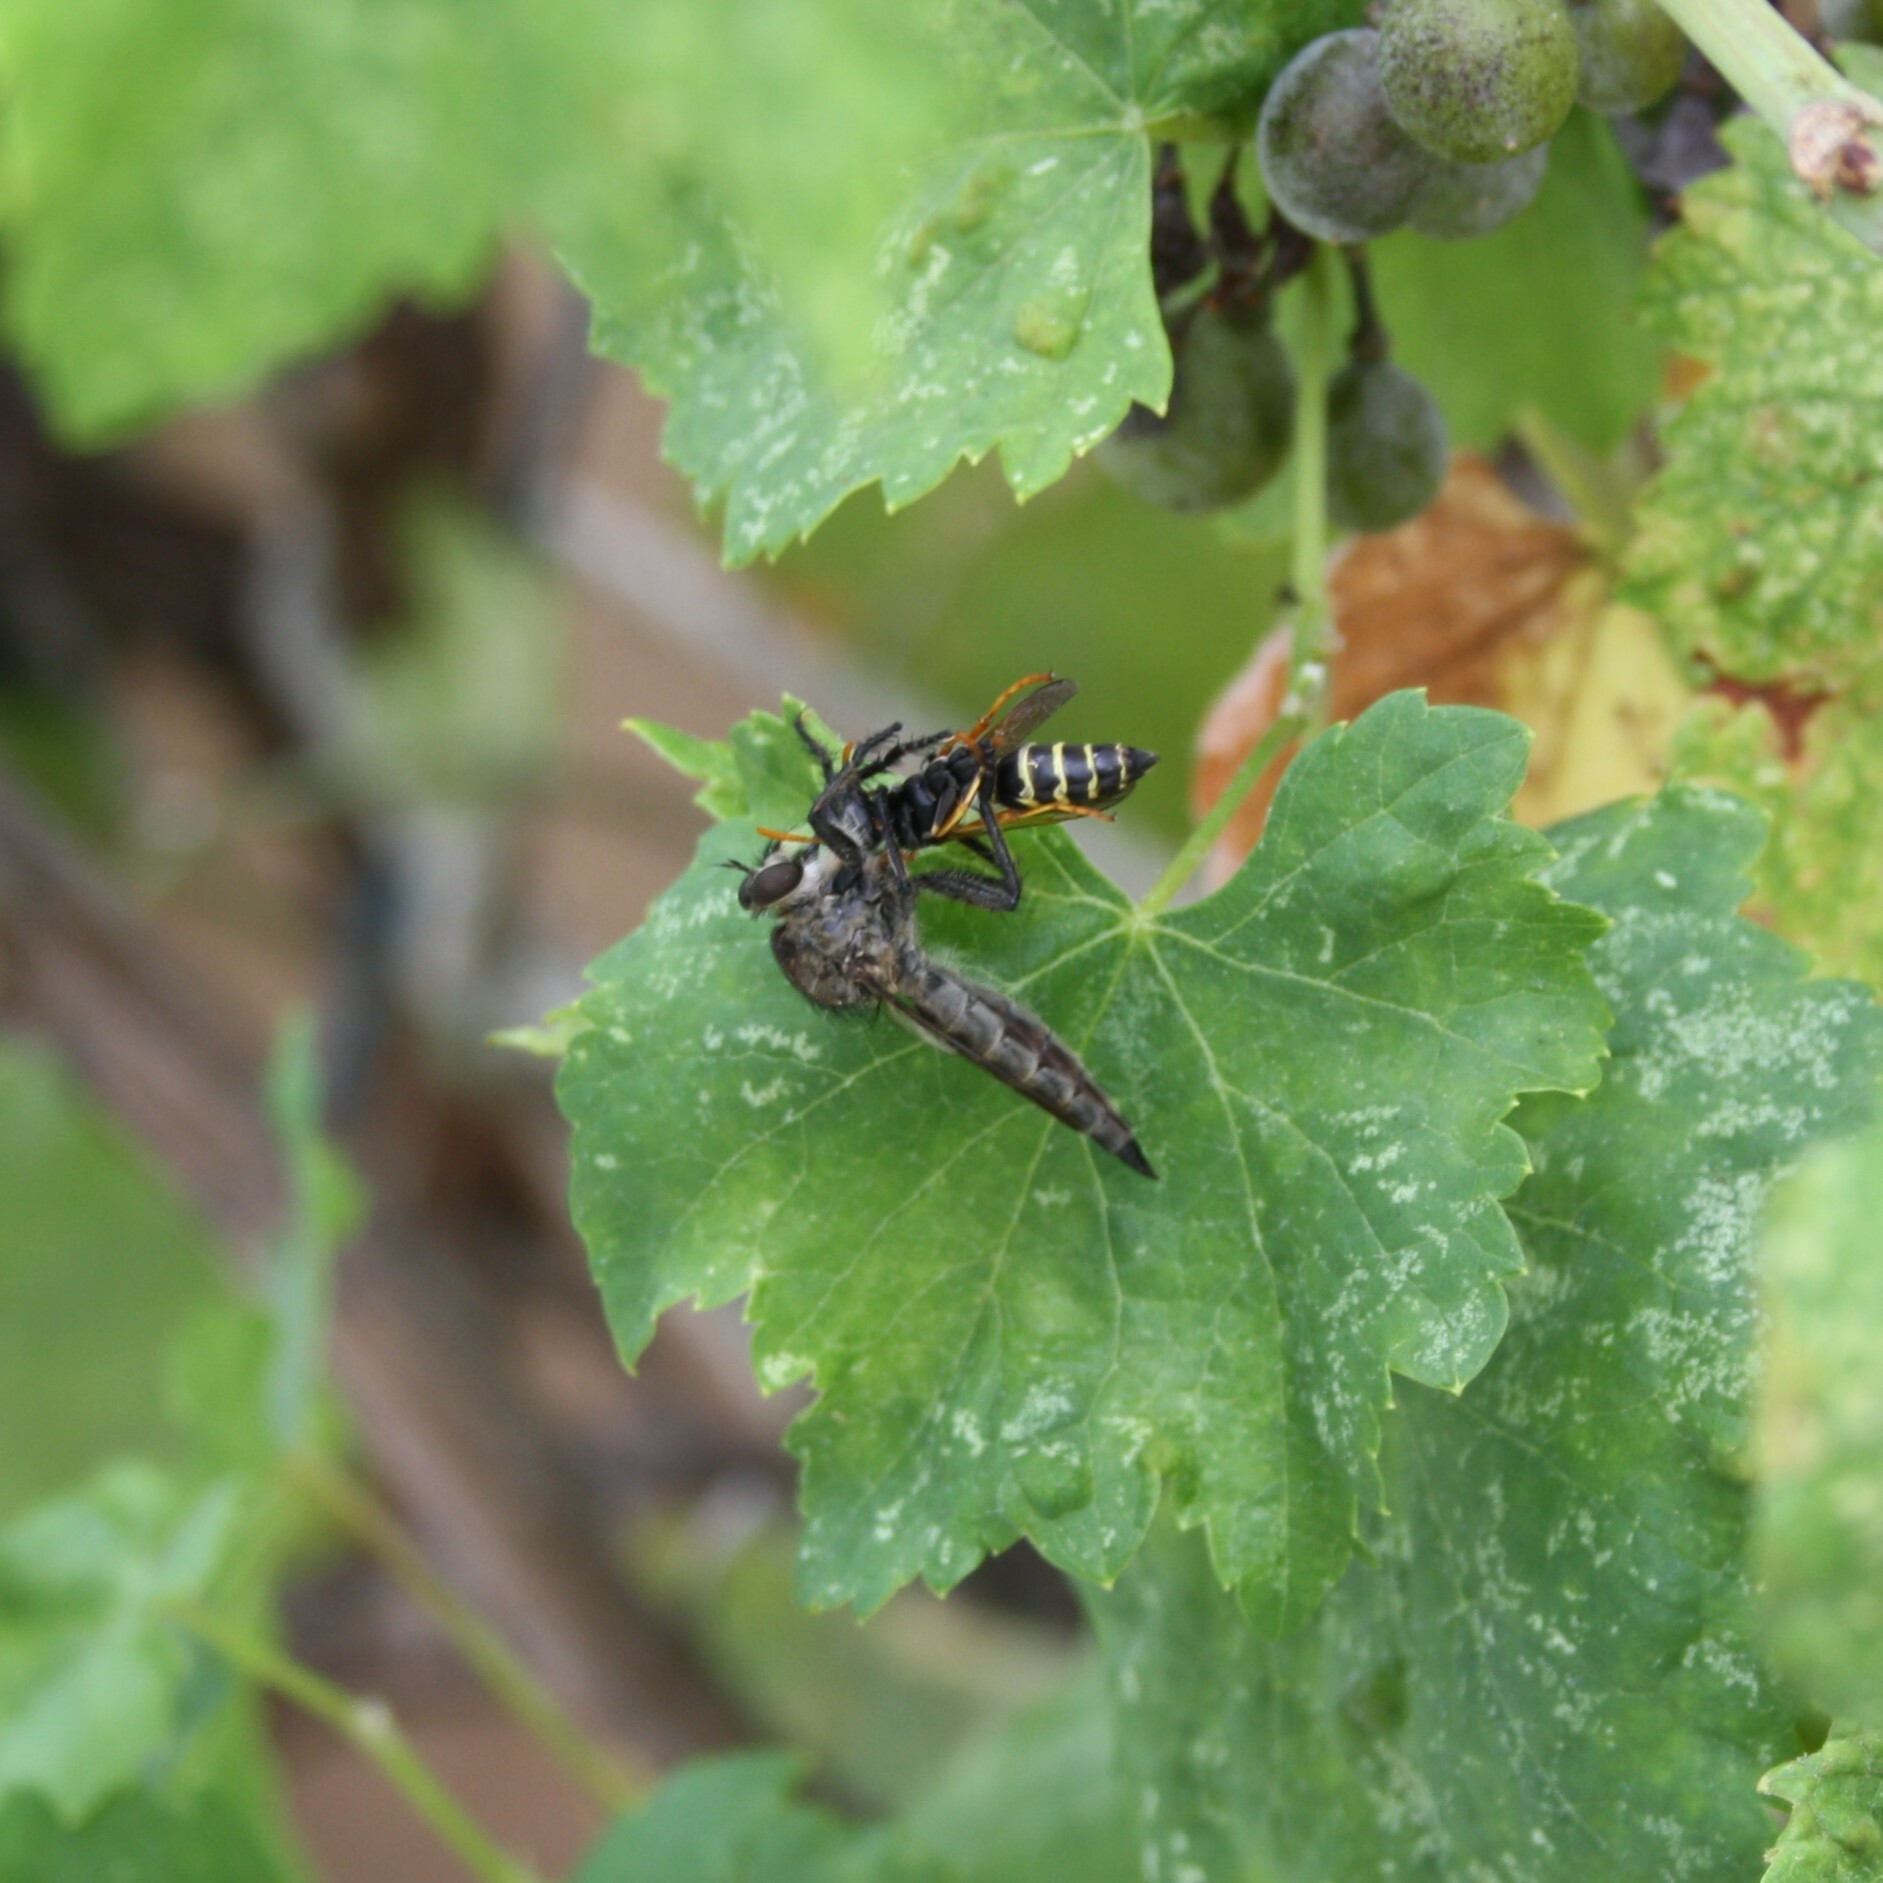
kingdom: Animalia
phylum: Arthropoda
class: Insecta
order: Hymenoptera
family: Eumenidae
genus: Polistes
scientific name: Polistes
